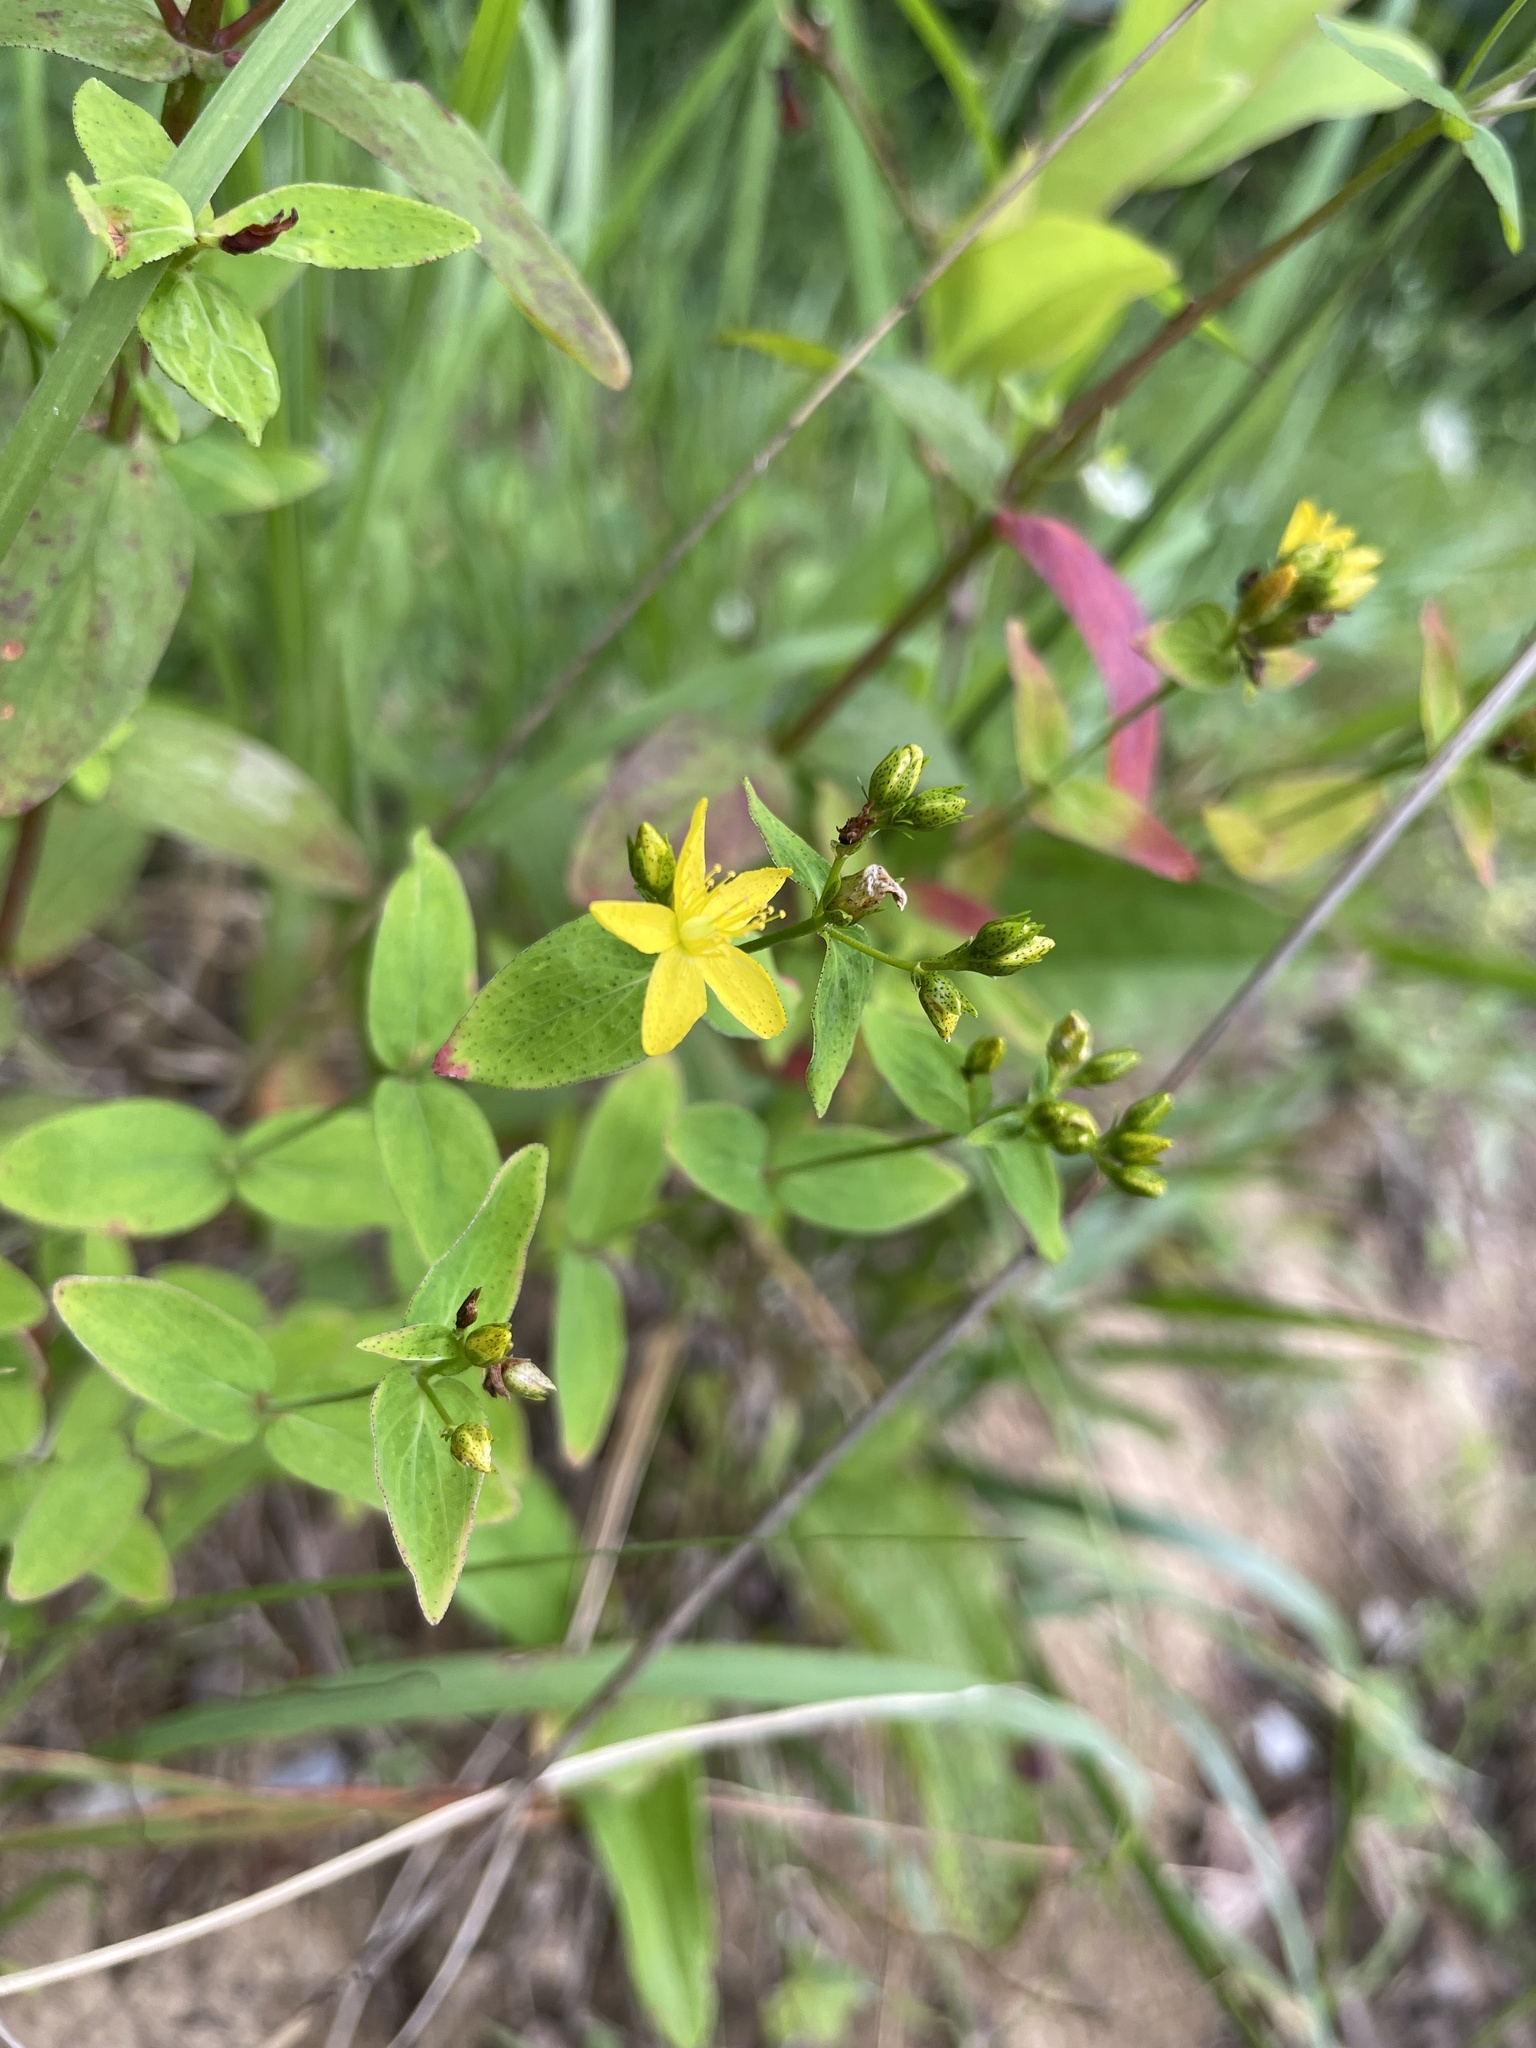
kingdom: Plantae
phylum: Tracheophyta
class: Magnoliopsida
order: Malpighiales
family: Hypericaceae
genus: Hypericum
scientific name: Hypericum punctatum
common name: Spotted st. john's-wort
